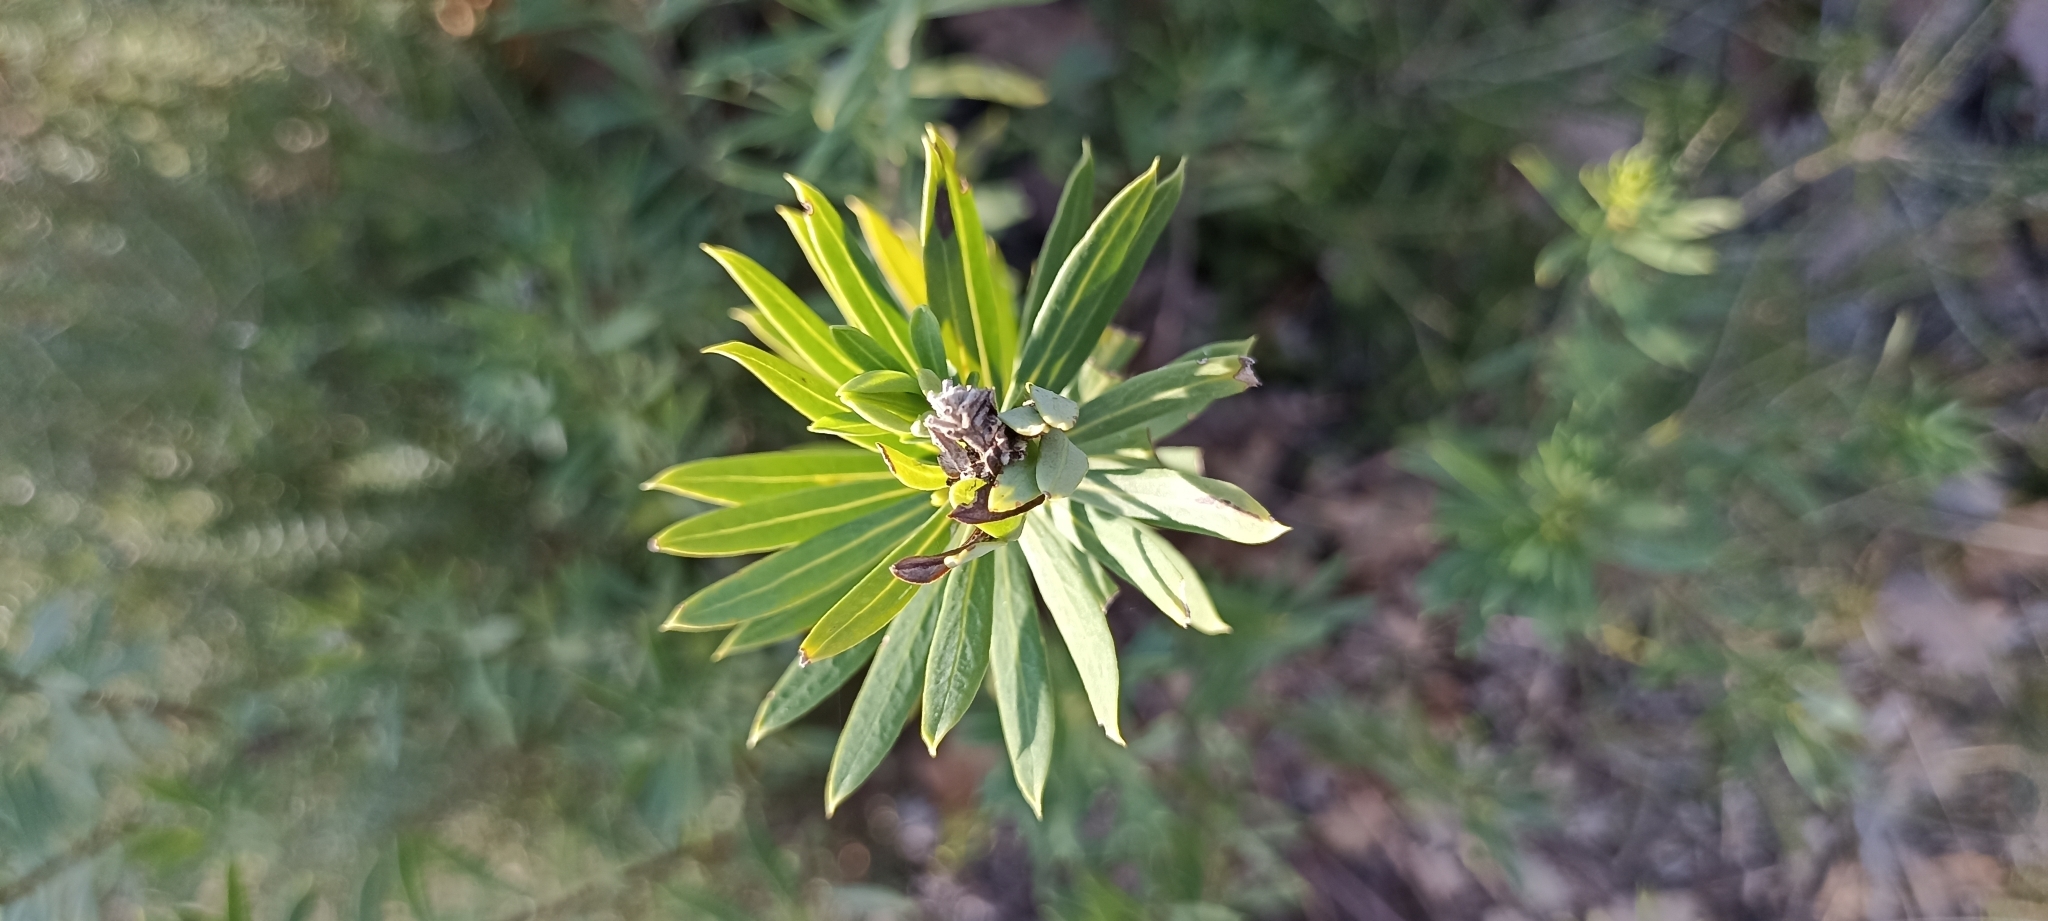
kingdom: Plantae
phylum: Tracheophyta
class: Magnoliopsida
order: Malvales
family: Thymelaeaceae
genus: Daphne
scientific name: Daphne gnidium
